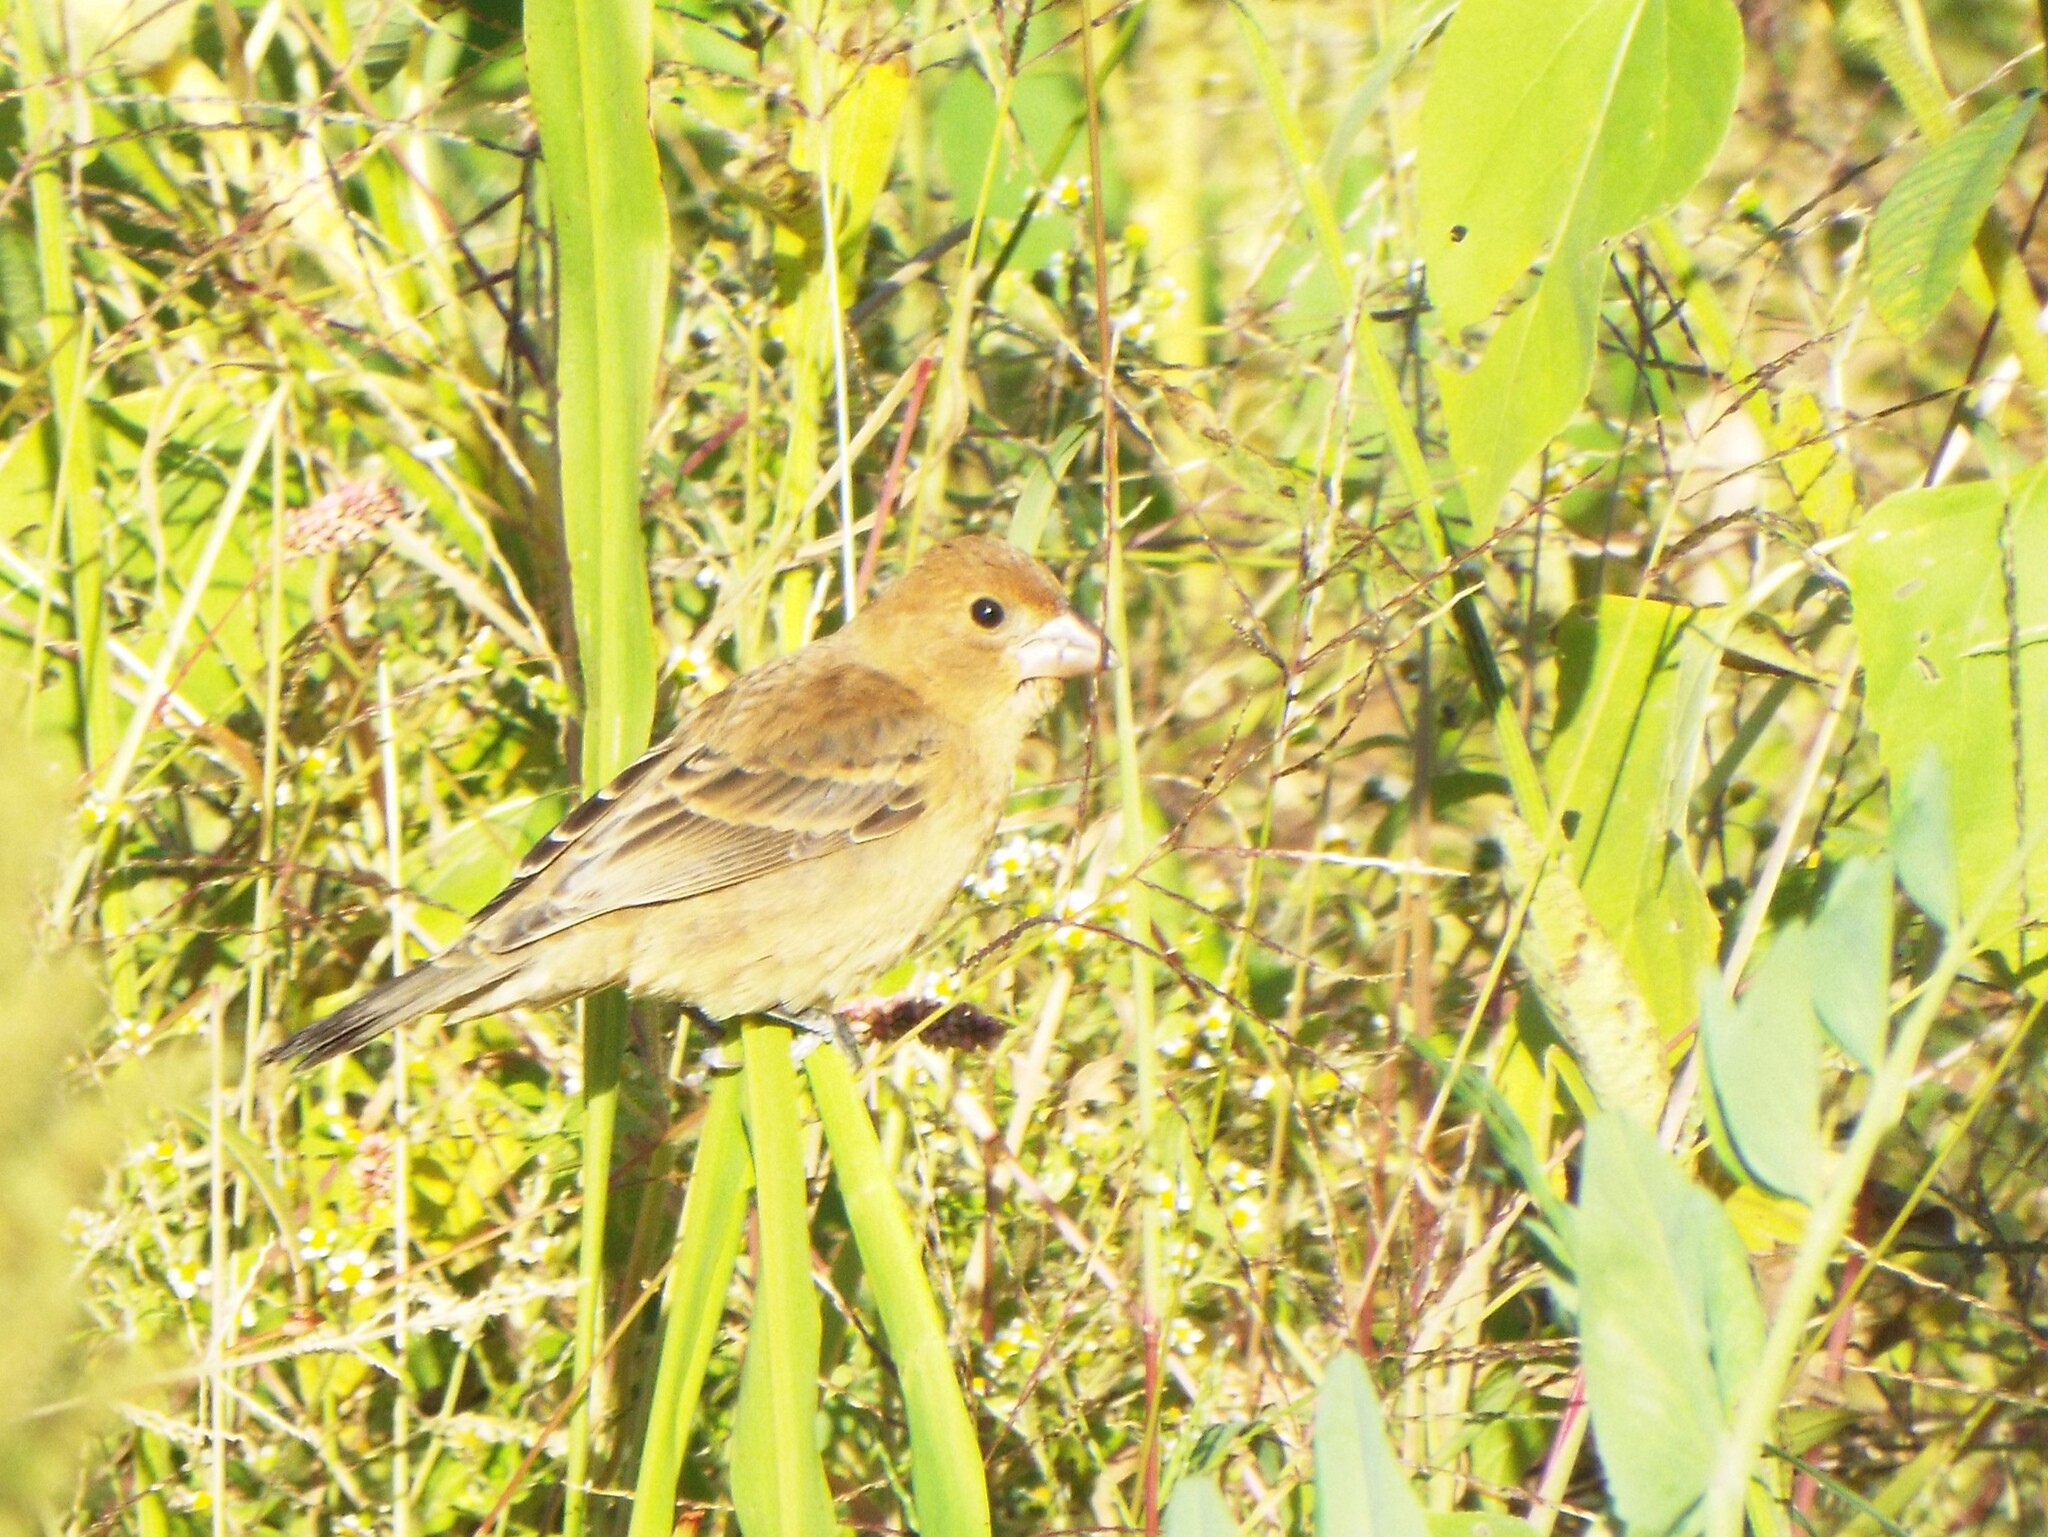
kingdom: Animalia
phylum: Chordata
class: Aves
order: Passeriformes
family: Cardinalidae
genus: Passerina
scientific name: Passerina caerulea
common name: Blue grosbeak
